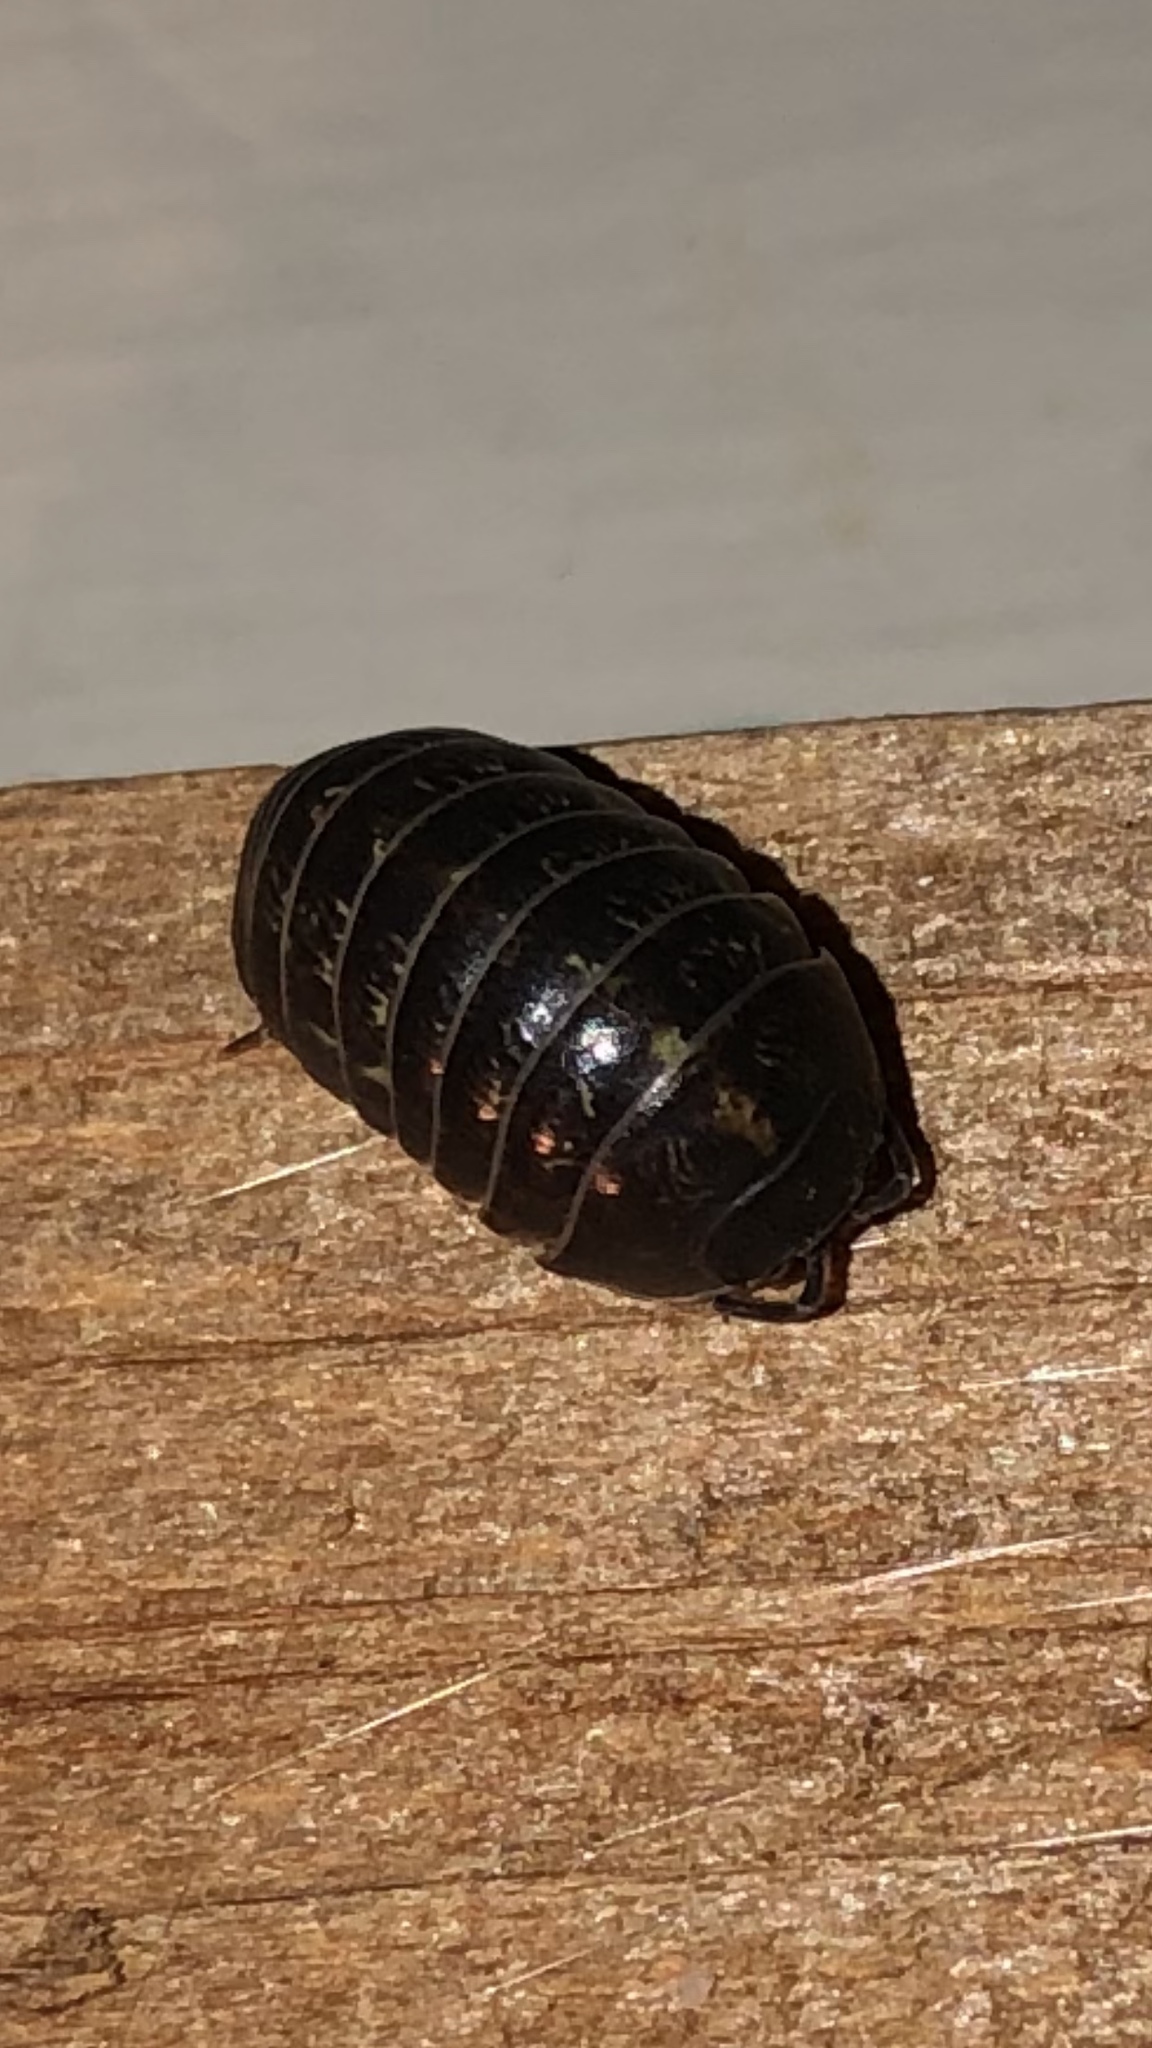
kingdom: Animalia
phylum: Arthropoda
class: Malacostraca
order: Isopoda
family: Armadillidiidae
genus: Armadillidium
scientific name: Armadillidium vulgare
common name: Common pill woodlouse
